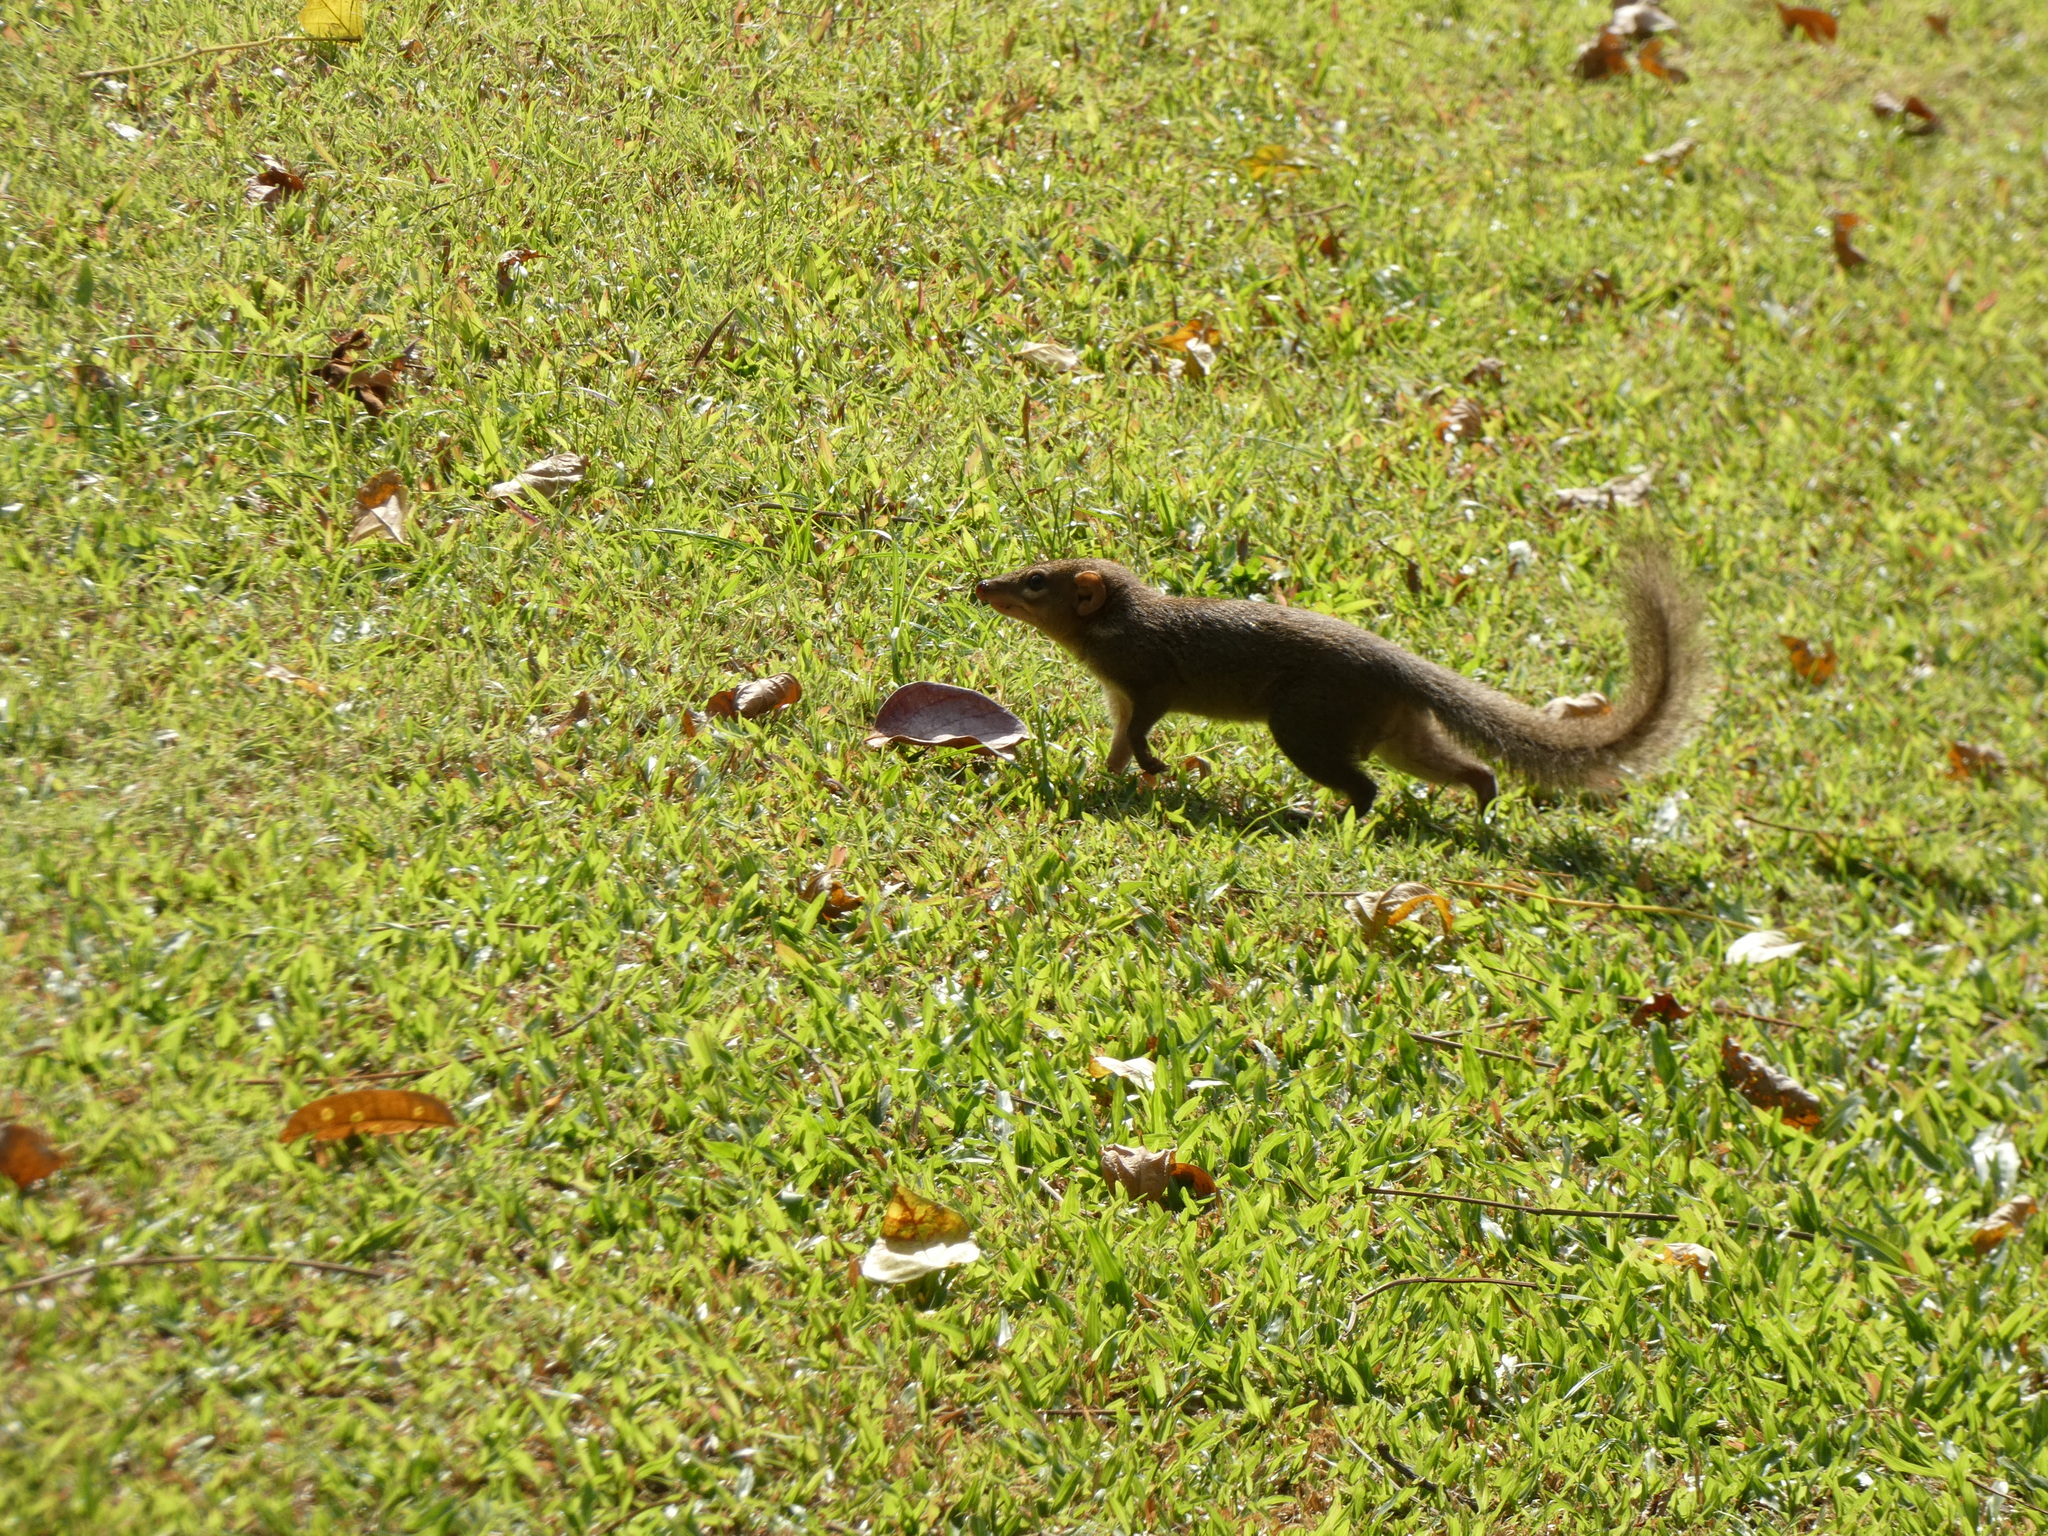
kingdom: Animalia
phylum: Chordata
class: Mammalia
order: Scandentia
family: Tupaiidae
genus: Tupaia
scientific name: Tupaia belangeri
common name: Northern treeshrew
